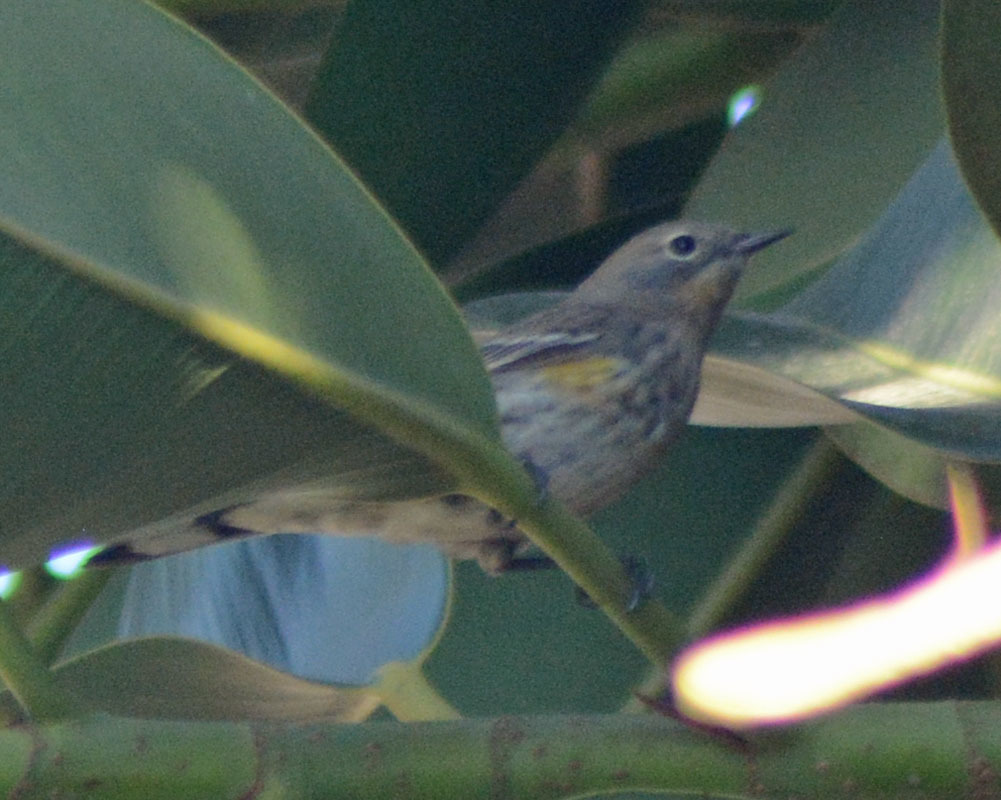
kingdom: Animalia
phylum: Chordata
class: Aves
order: Passeriformes
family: Parulidae
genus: Setophaga
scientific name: Setophaga coronata
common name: Myrtle warbler
